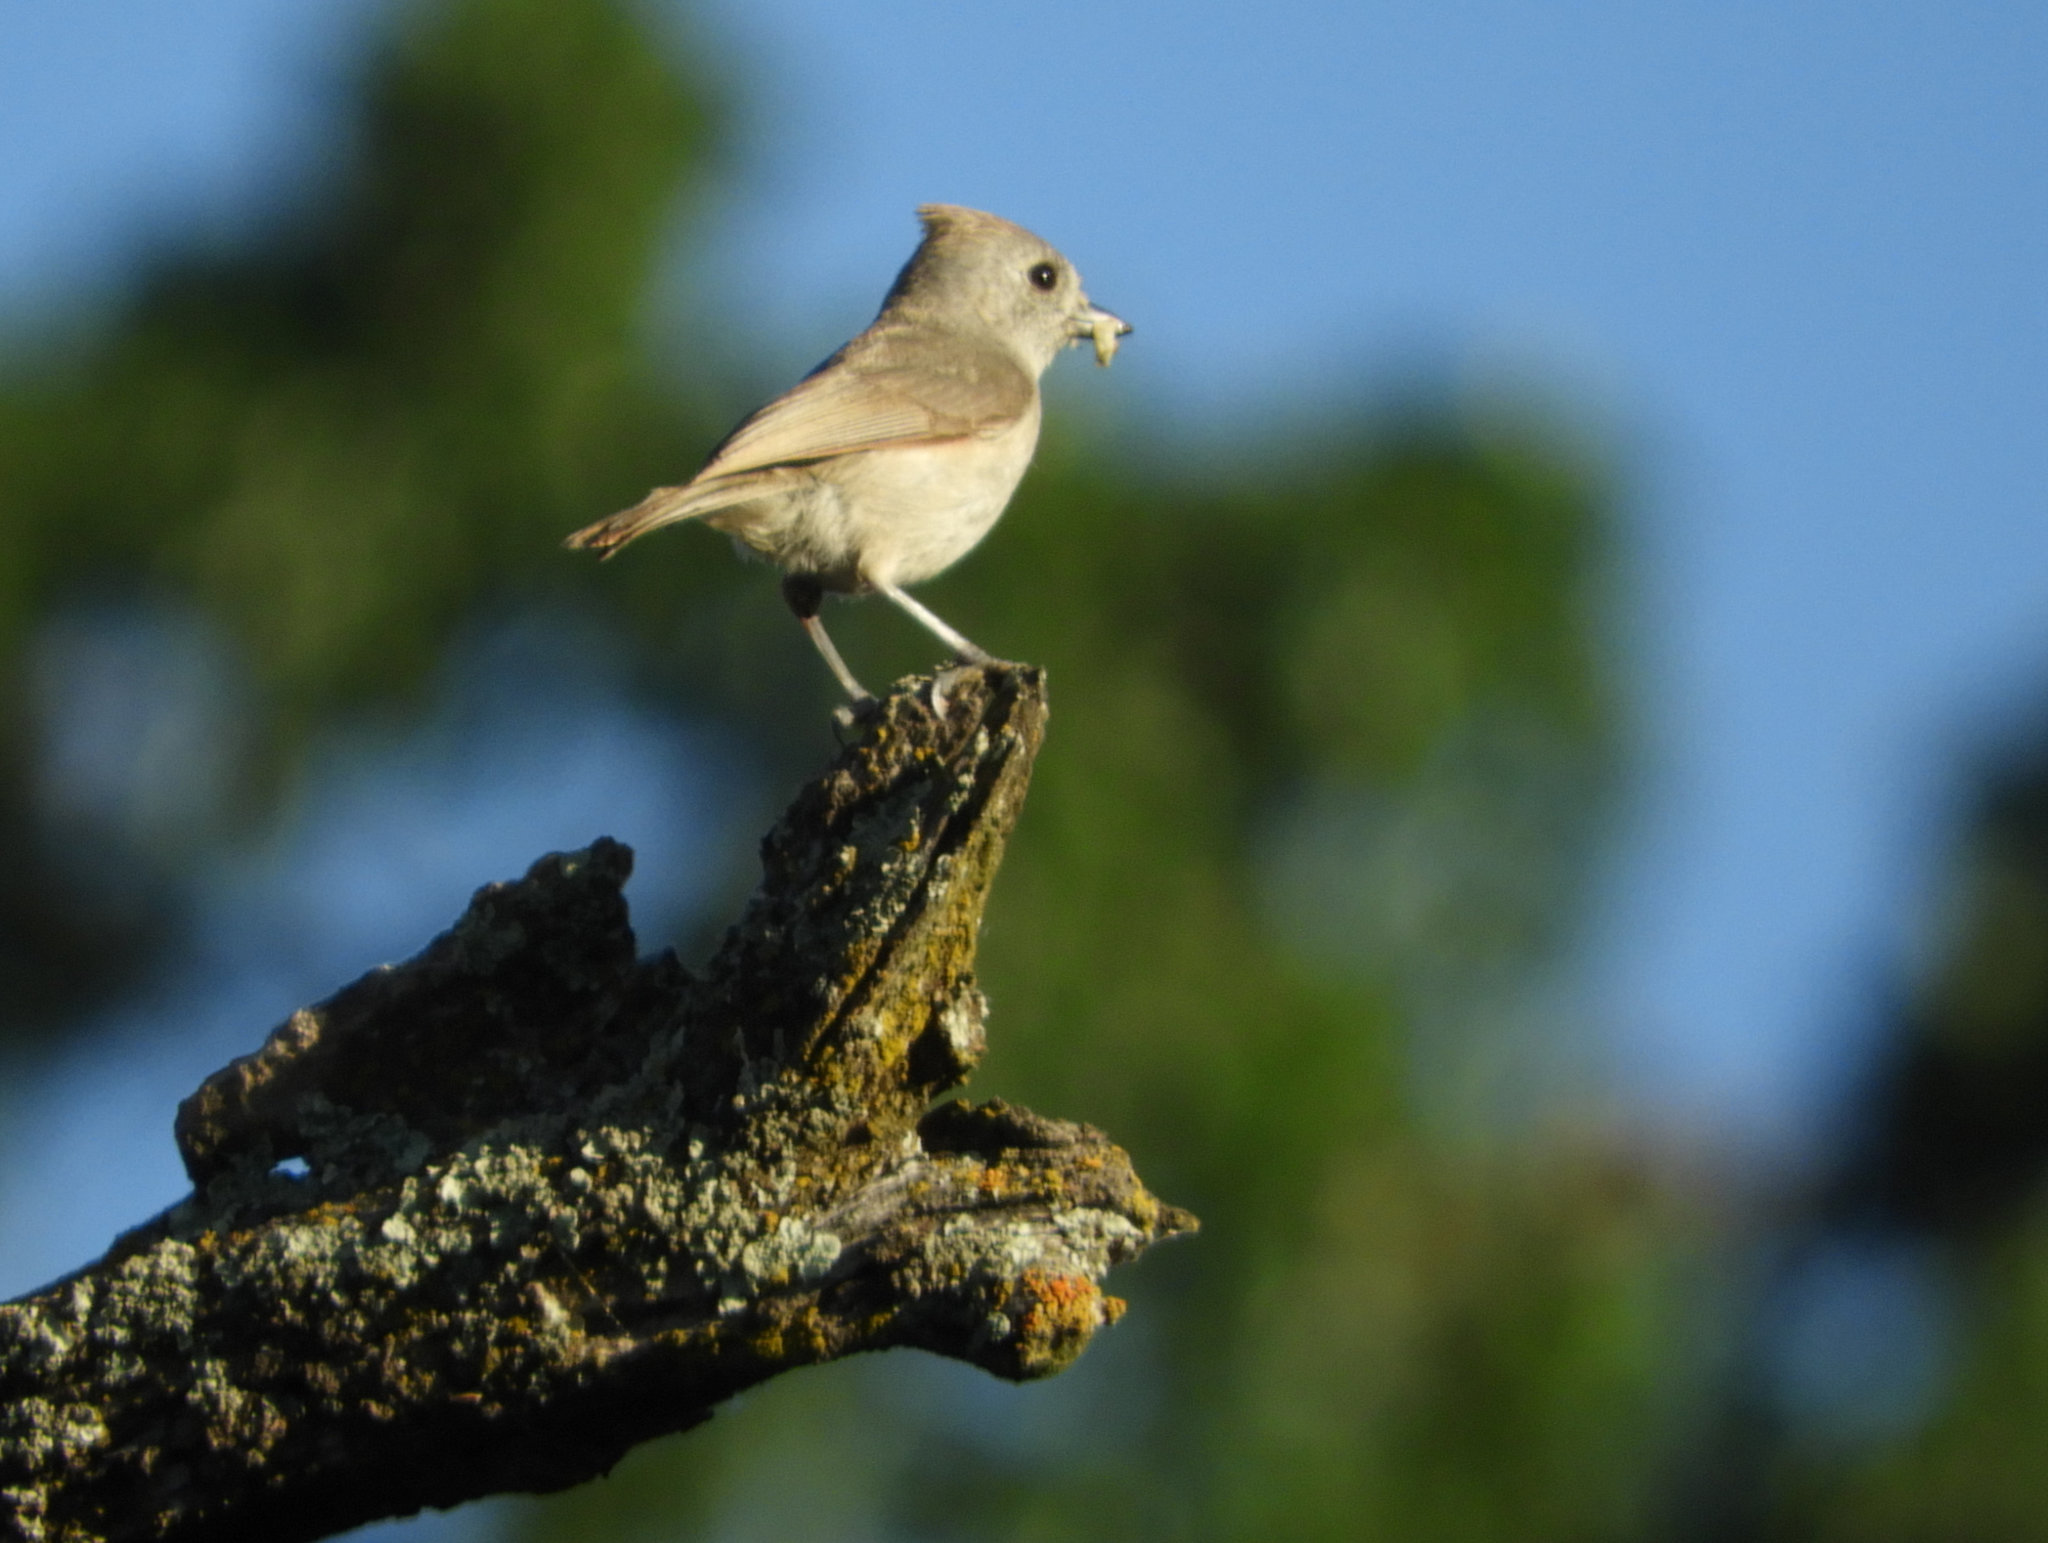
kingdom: Animalia
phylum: Chordata
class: Aves
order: Passeriformes
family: Paridae
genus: Baeolophus
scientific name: Baeolophus inornatus
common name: Oak titmouse
